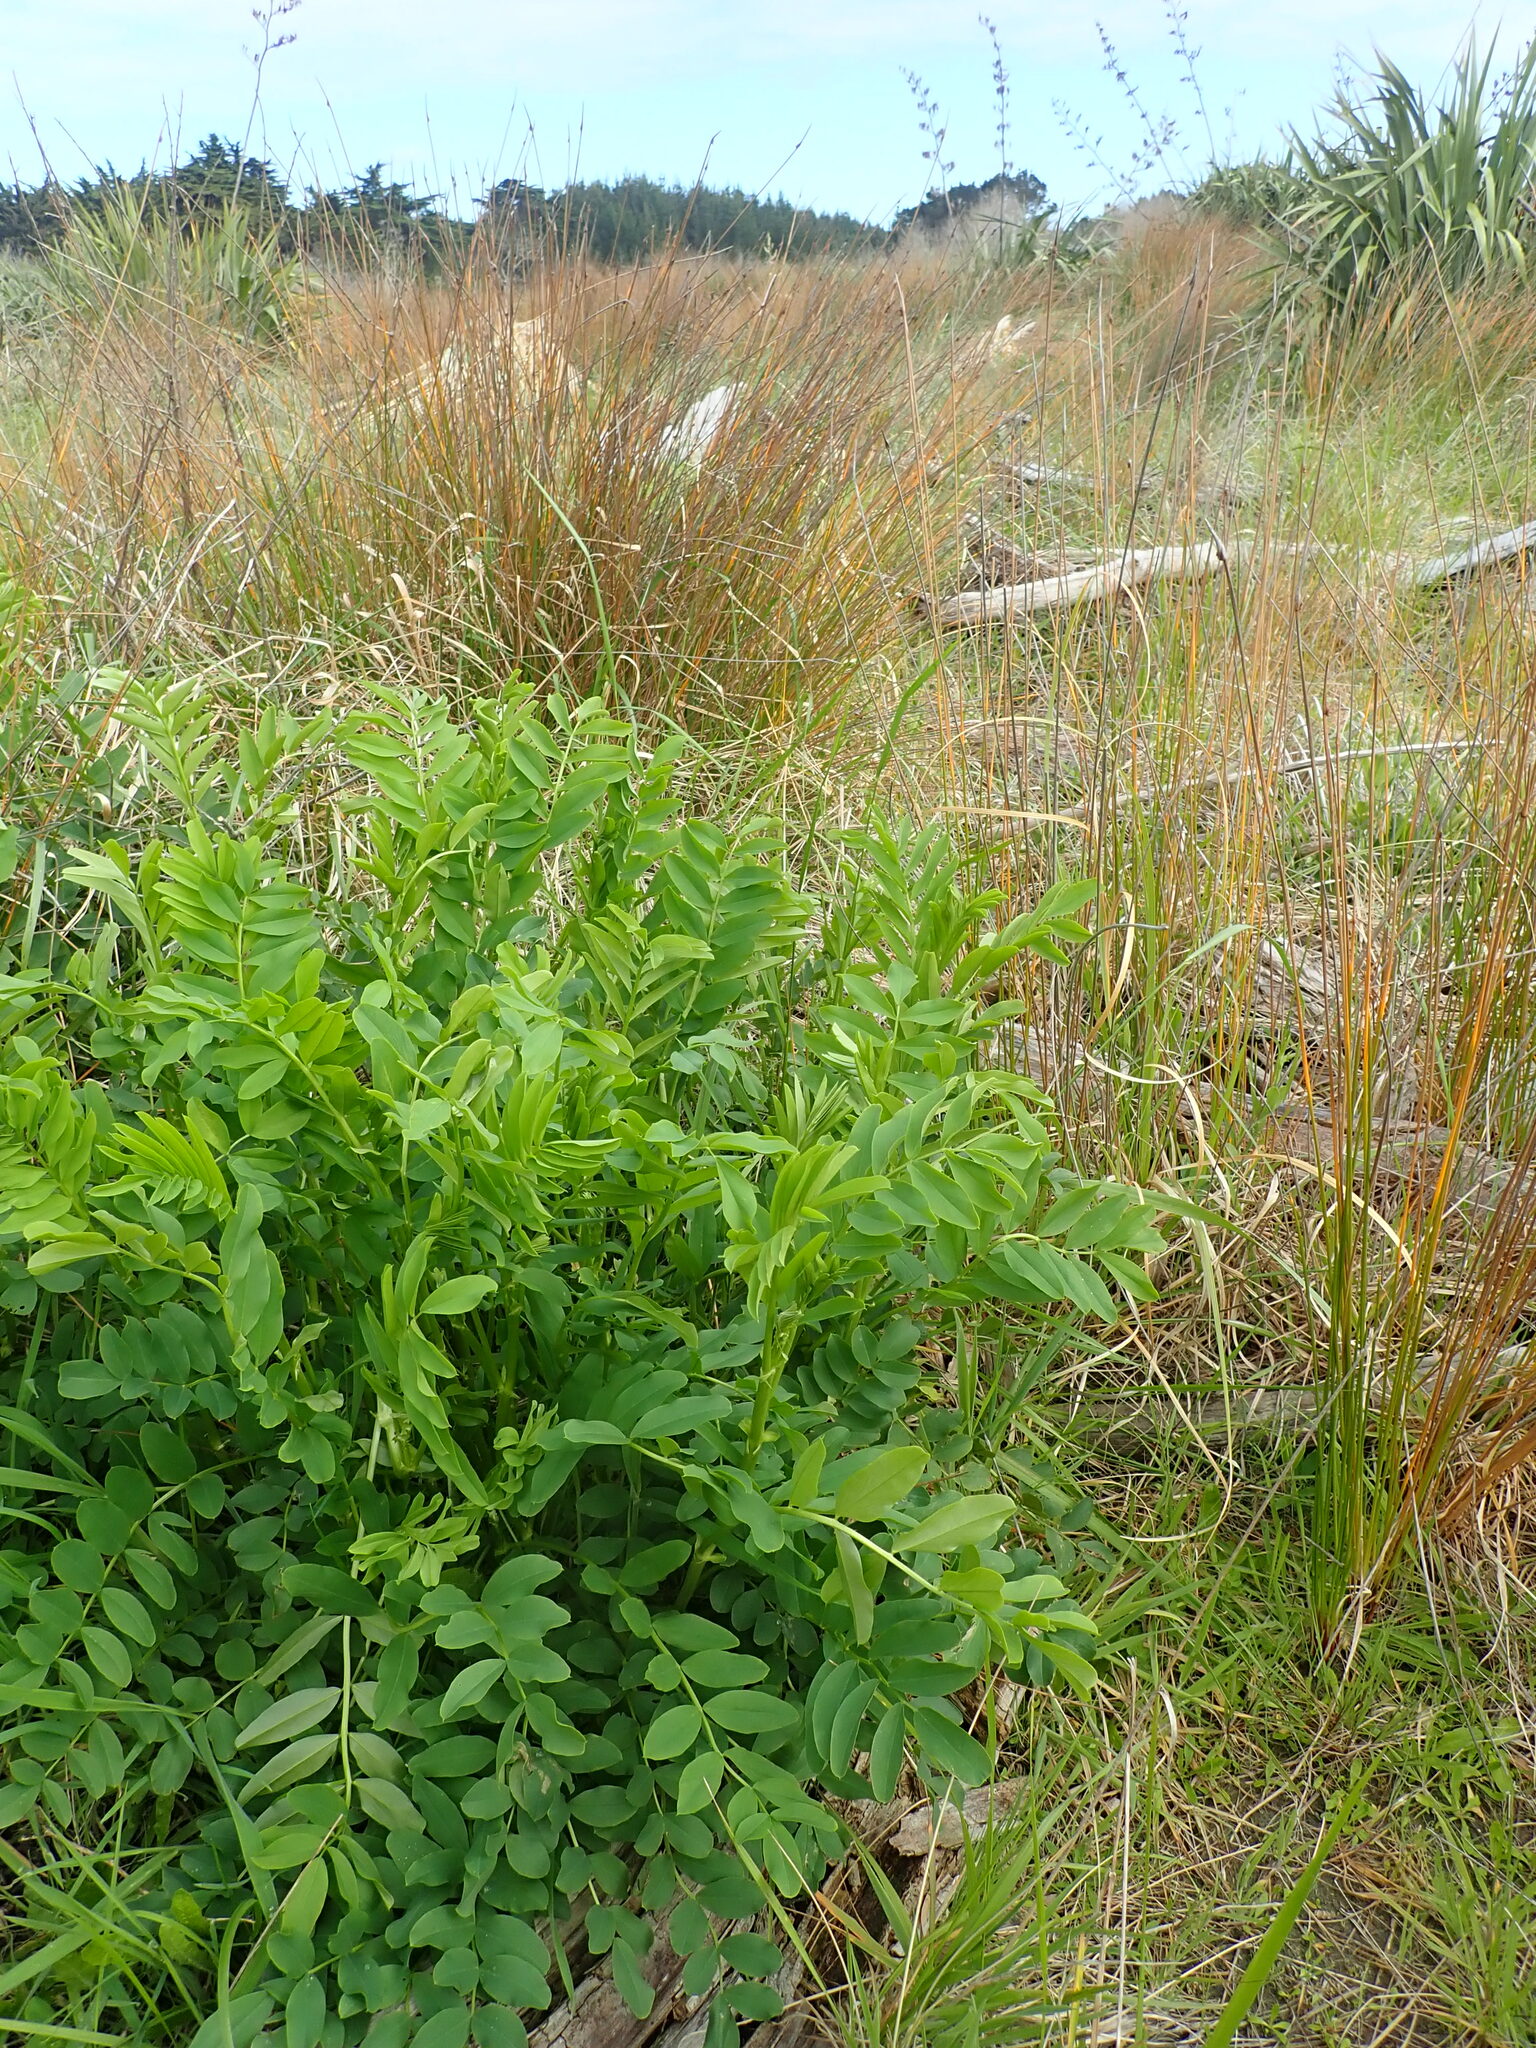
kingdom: Plantae
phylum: Tracheophyta
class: Magnoliopsida
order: Fabales
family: Fabaceae
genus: Galega
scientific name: Galega officinalis
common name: Goat's-rue
